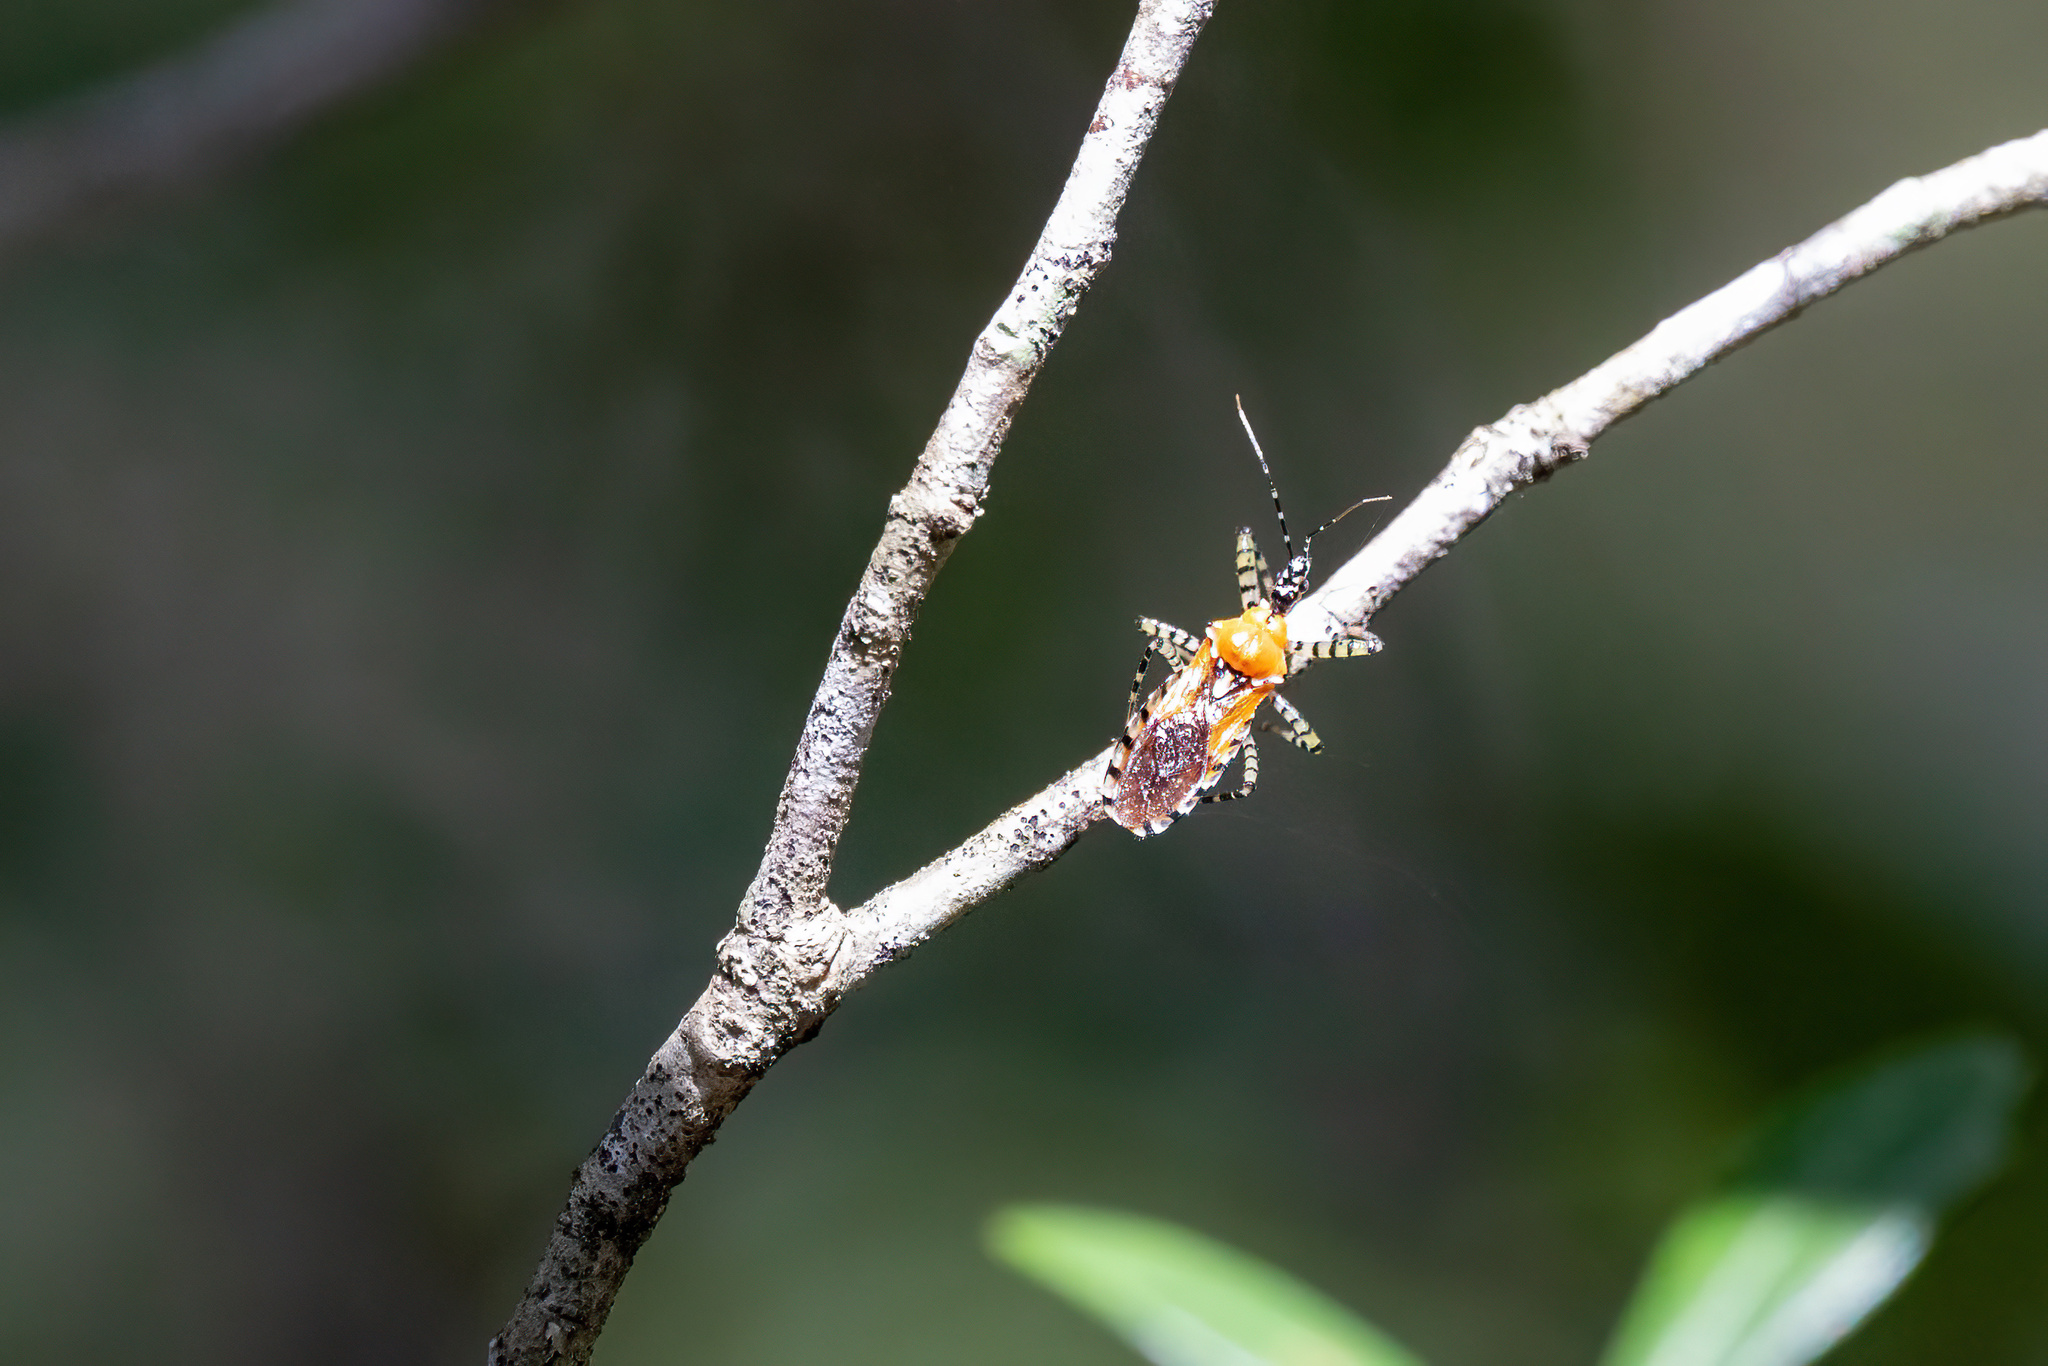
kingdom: Animalia
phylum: Arthropoda
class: Insecta
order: Hemiptera
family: Reduviidae
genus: Pselliopus
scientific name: Pselliopus cinctus
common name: Ringed assassin bug
